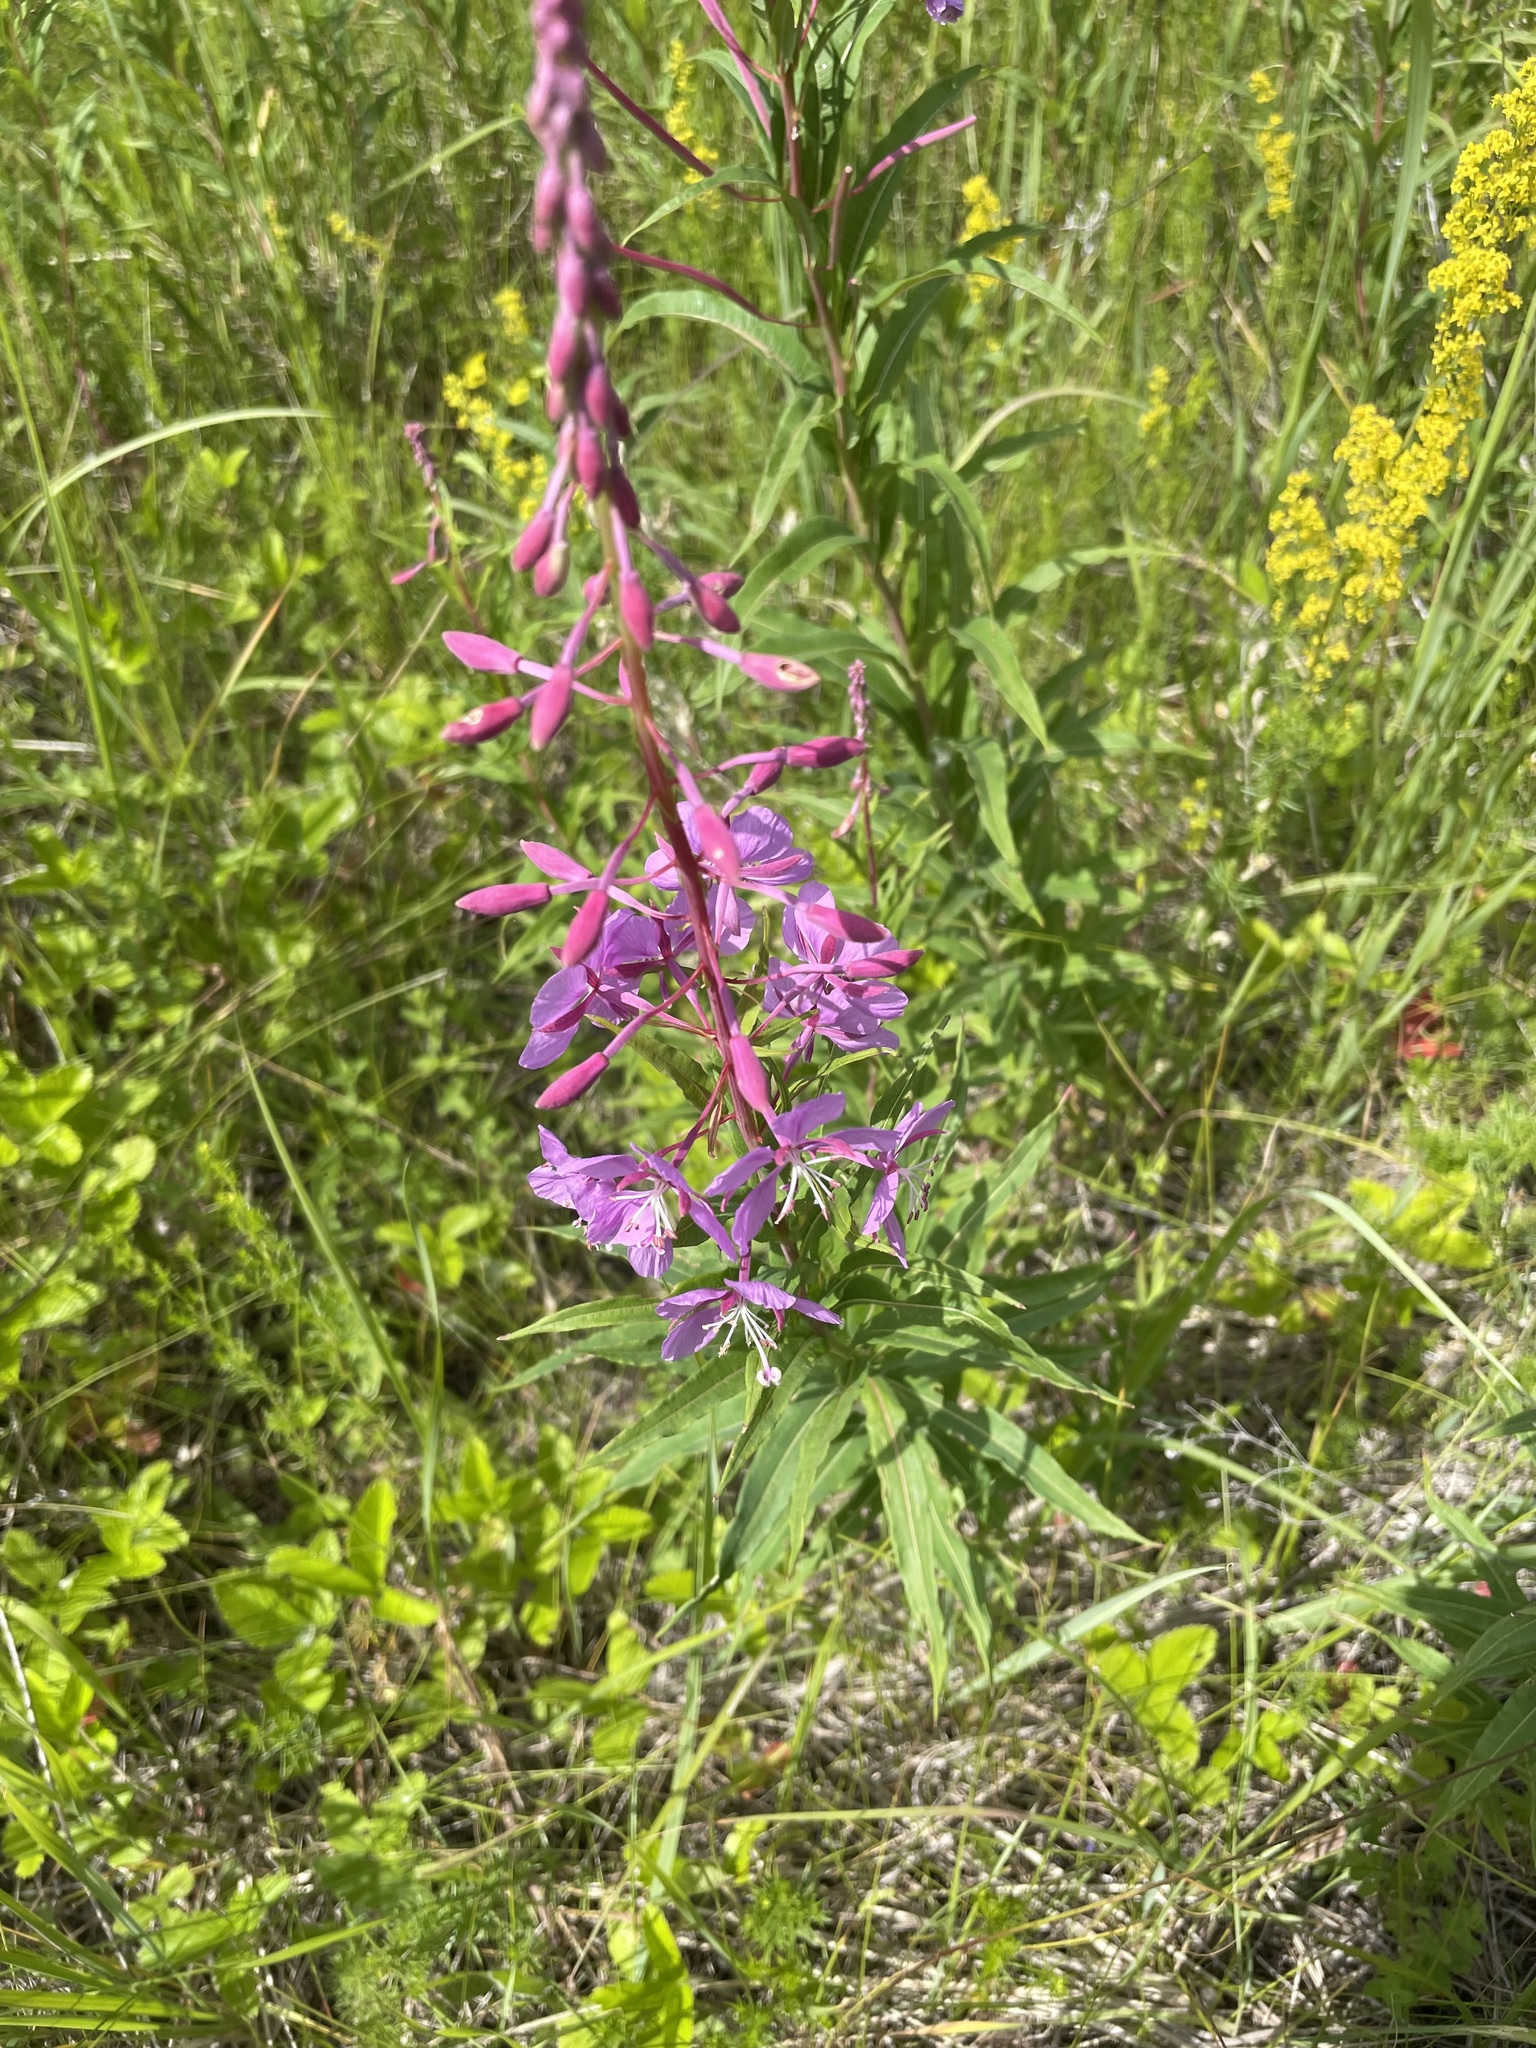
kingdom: Plantae
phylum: Tracheophyta
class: Magnoliopsida
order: Myrtales
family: Onagraceae
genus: Chamaenerion
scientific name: Chamaenerion angustifolium
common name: Fireweed
